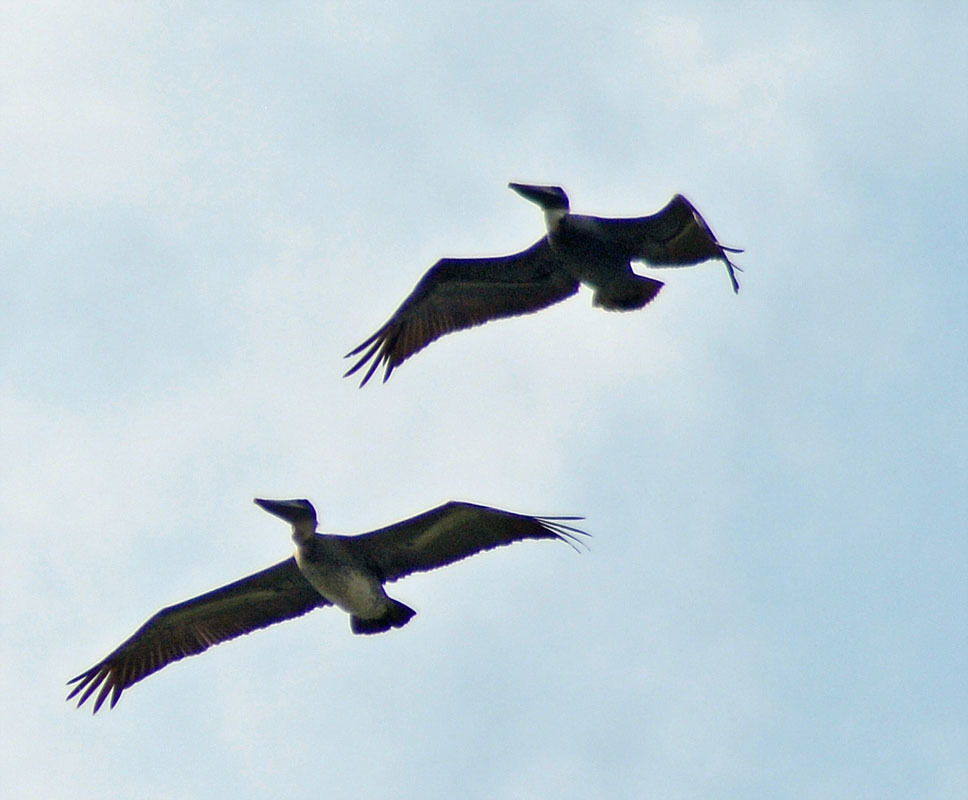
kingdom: Animalia
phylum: Chordata
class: Aves
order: Pelecaniformes
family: Pelecanidae
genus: Pelecanus
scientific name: Pelecanus occidentalis
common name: Brown pelican
